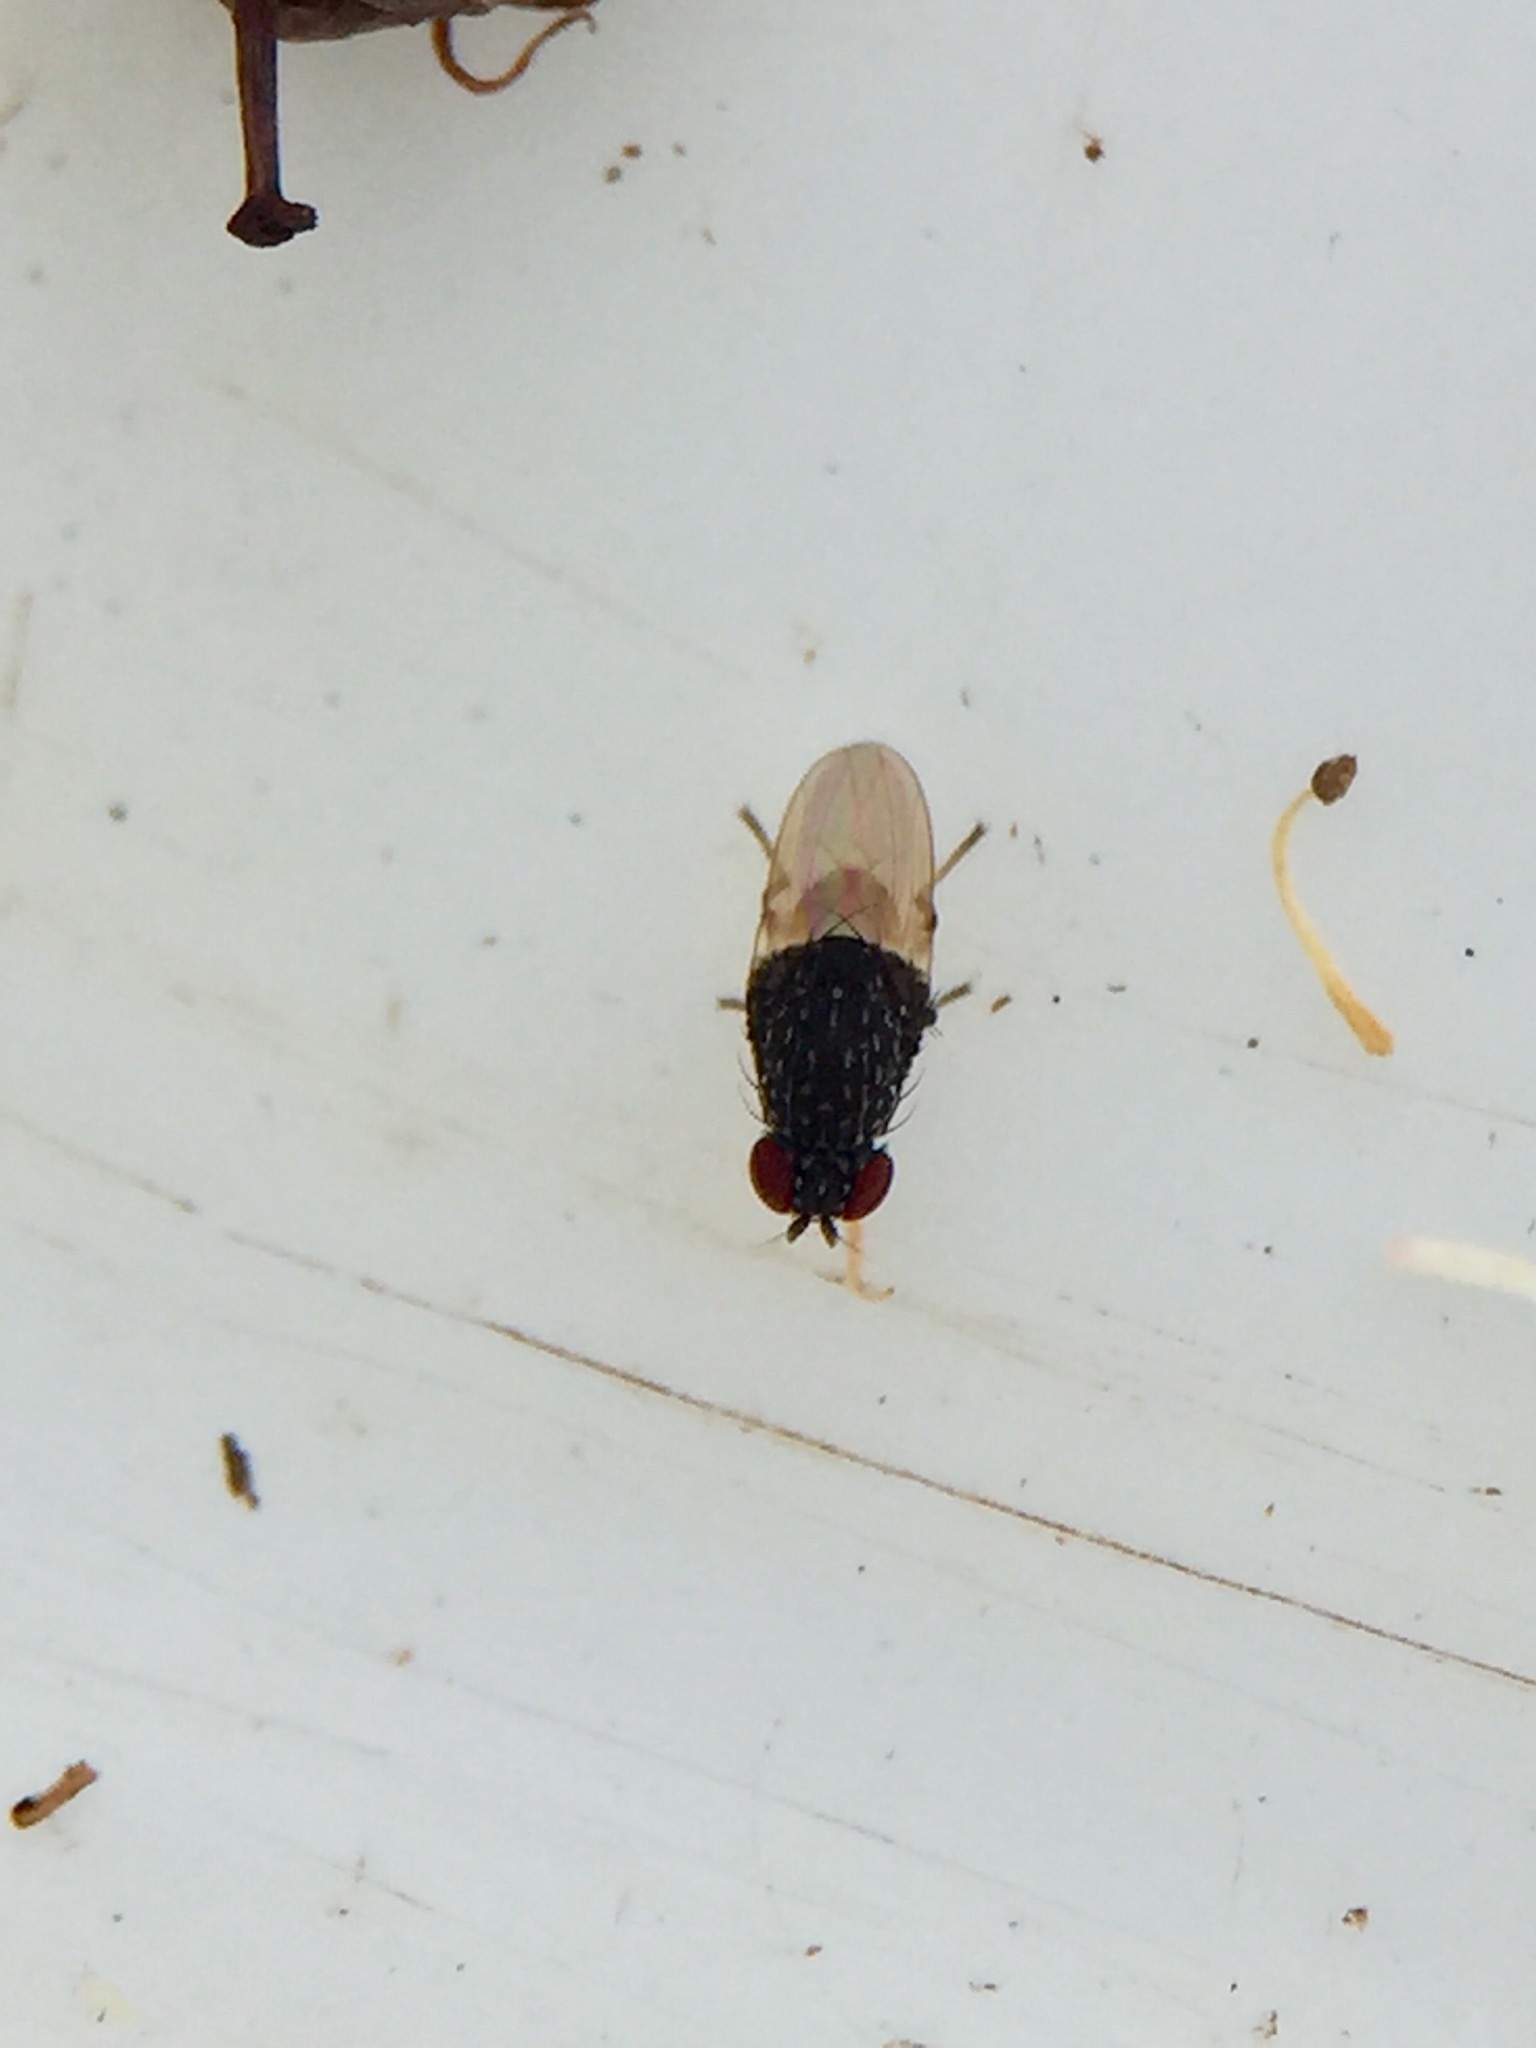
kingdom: Animalia
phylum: Arthropoda
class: Insecta
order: Diptera
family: Heleomyzidae
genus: Allophylina
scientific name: Allophylina albitarsis
